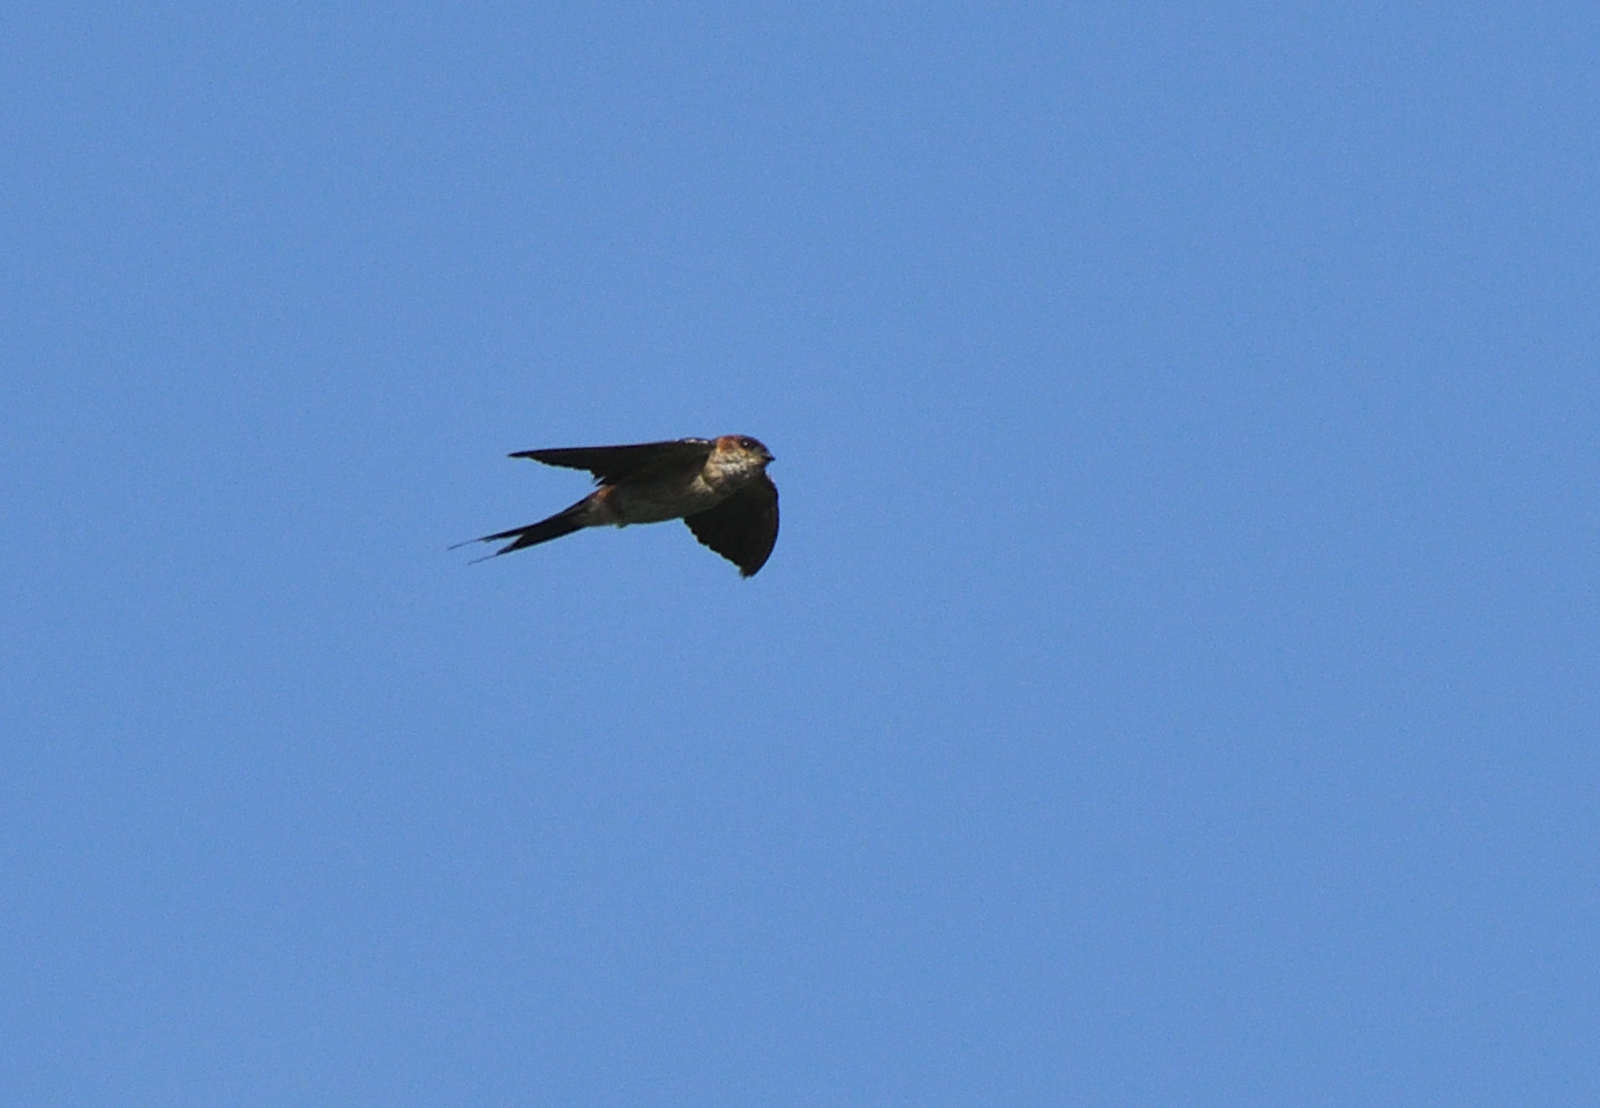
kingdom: Animalia
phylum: Chordata
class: Aves
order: Passeriformes
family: Hirundinidae
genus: Cecropis
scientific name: Cecropis daurica
